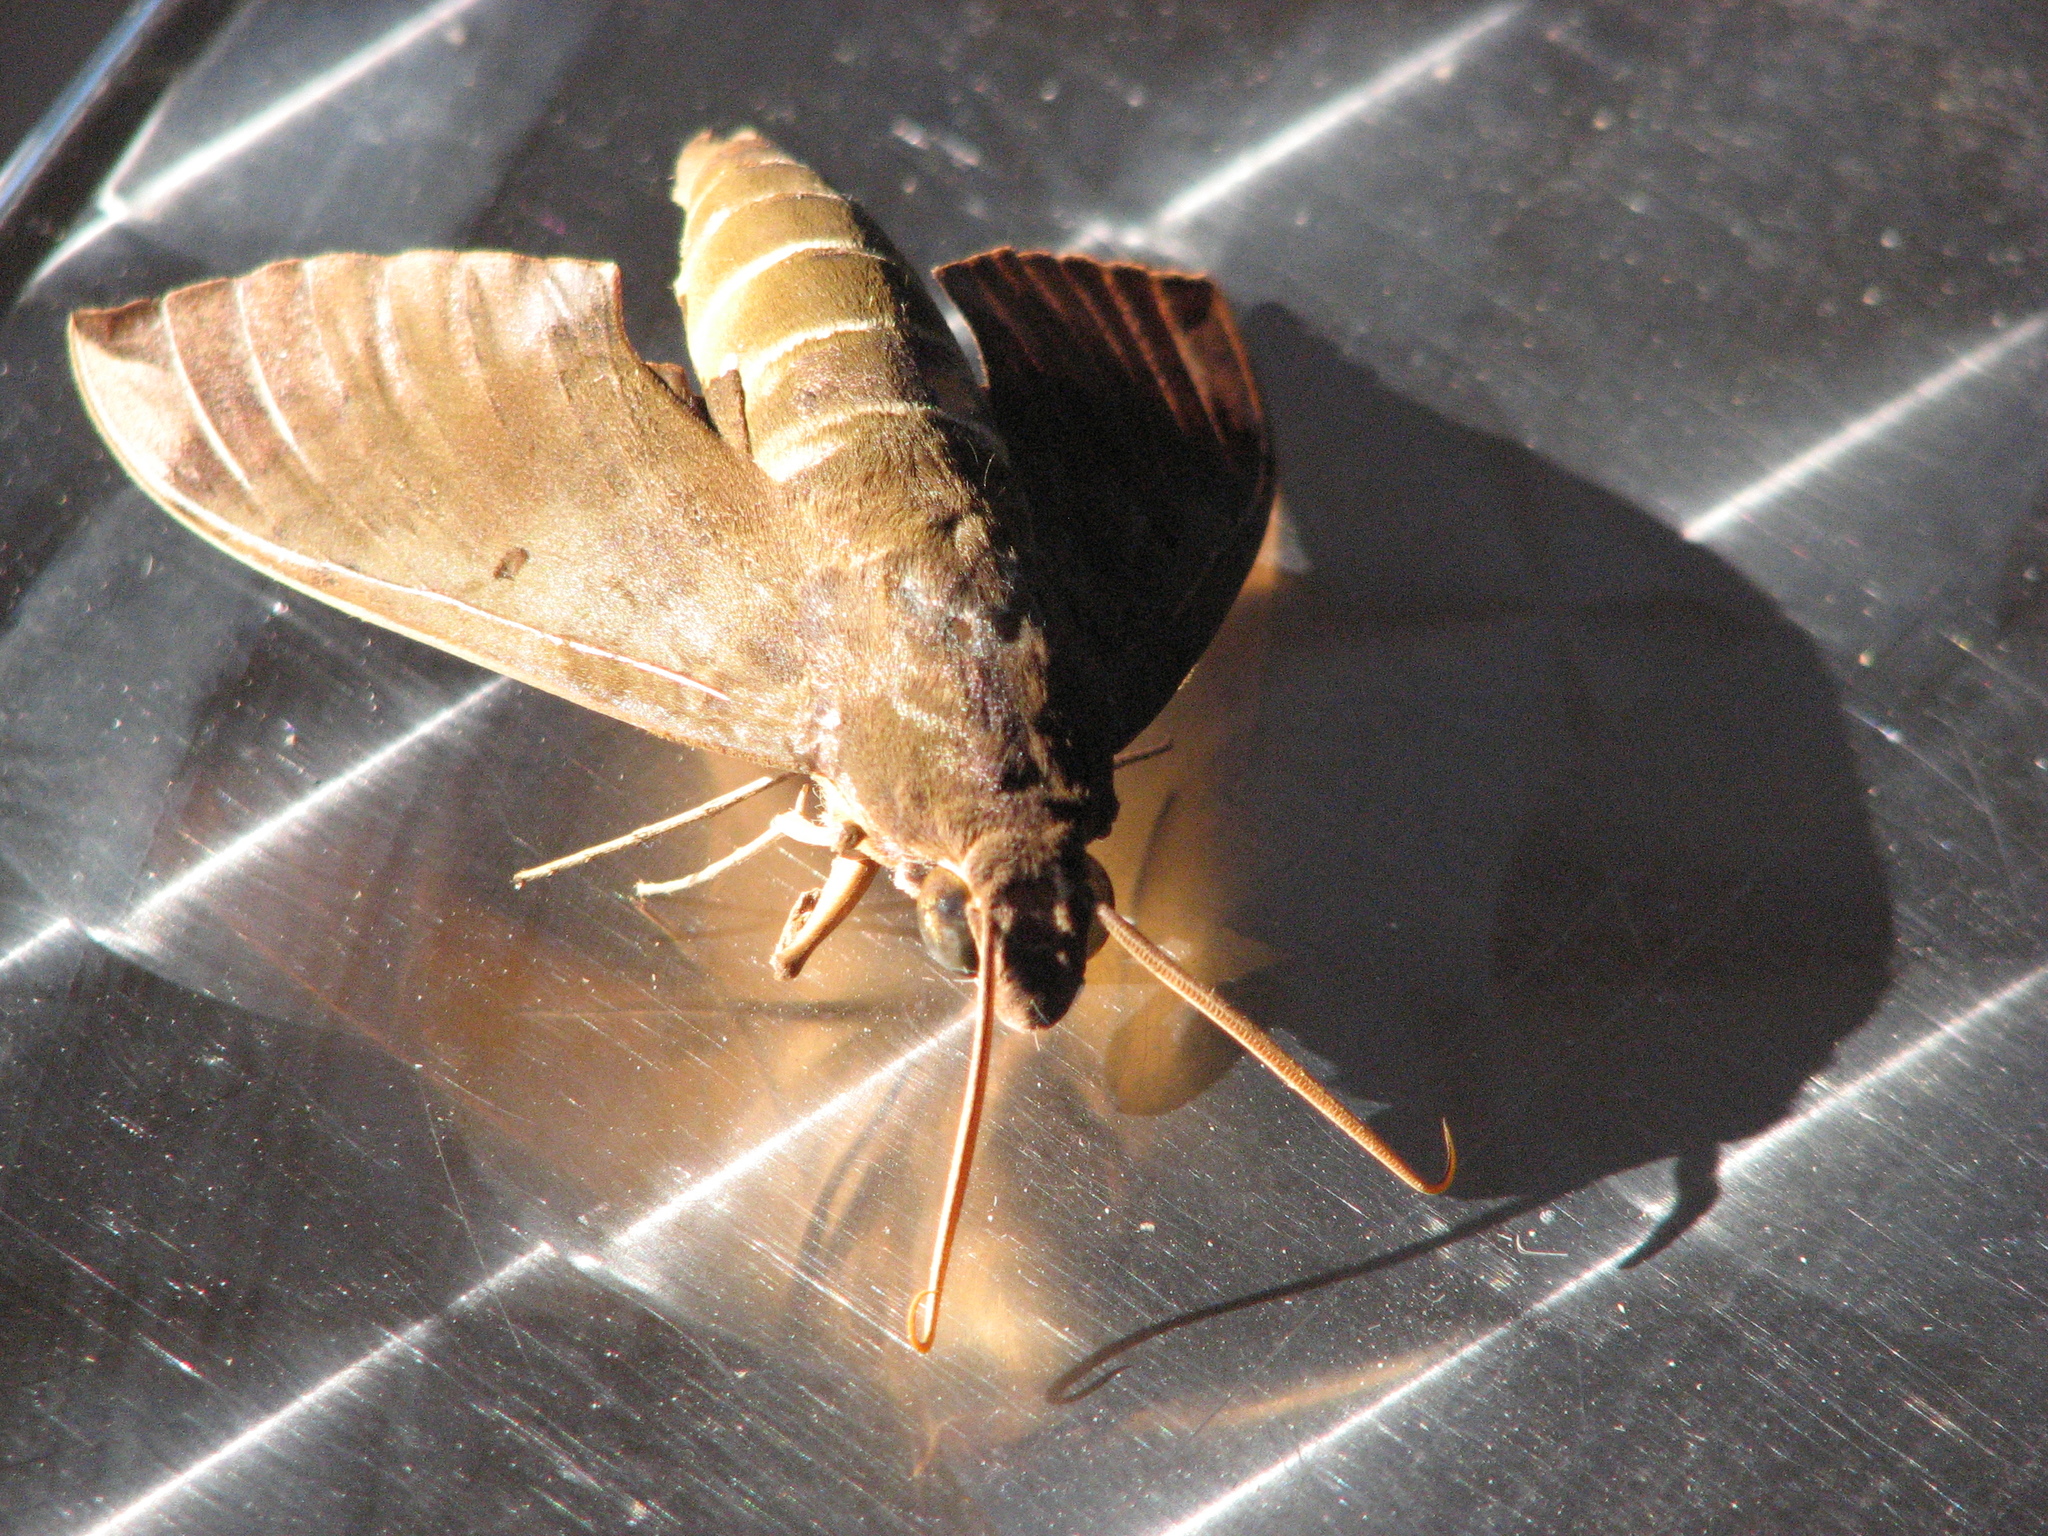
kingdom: Animalia
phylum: Arthropoda
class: Insecta
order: Lepidoptera
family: Sphingidae
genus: Pachylia
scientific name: Pachylia ficus
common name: Fig sphinx
